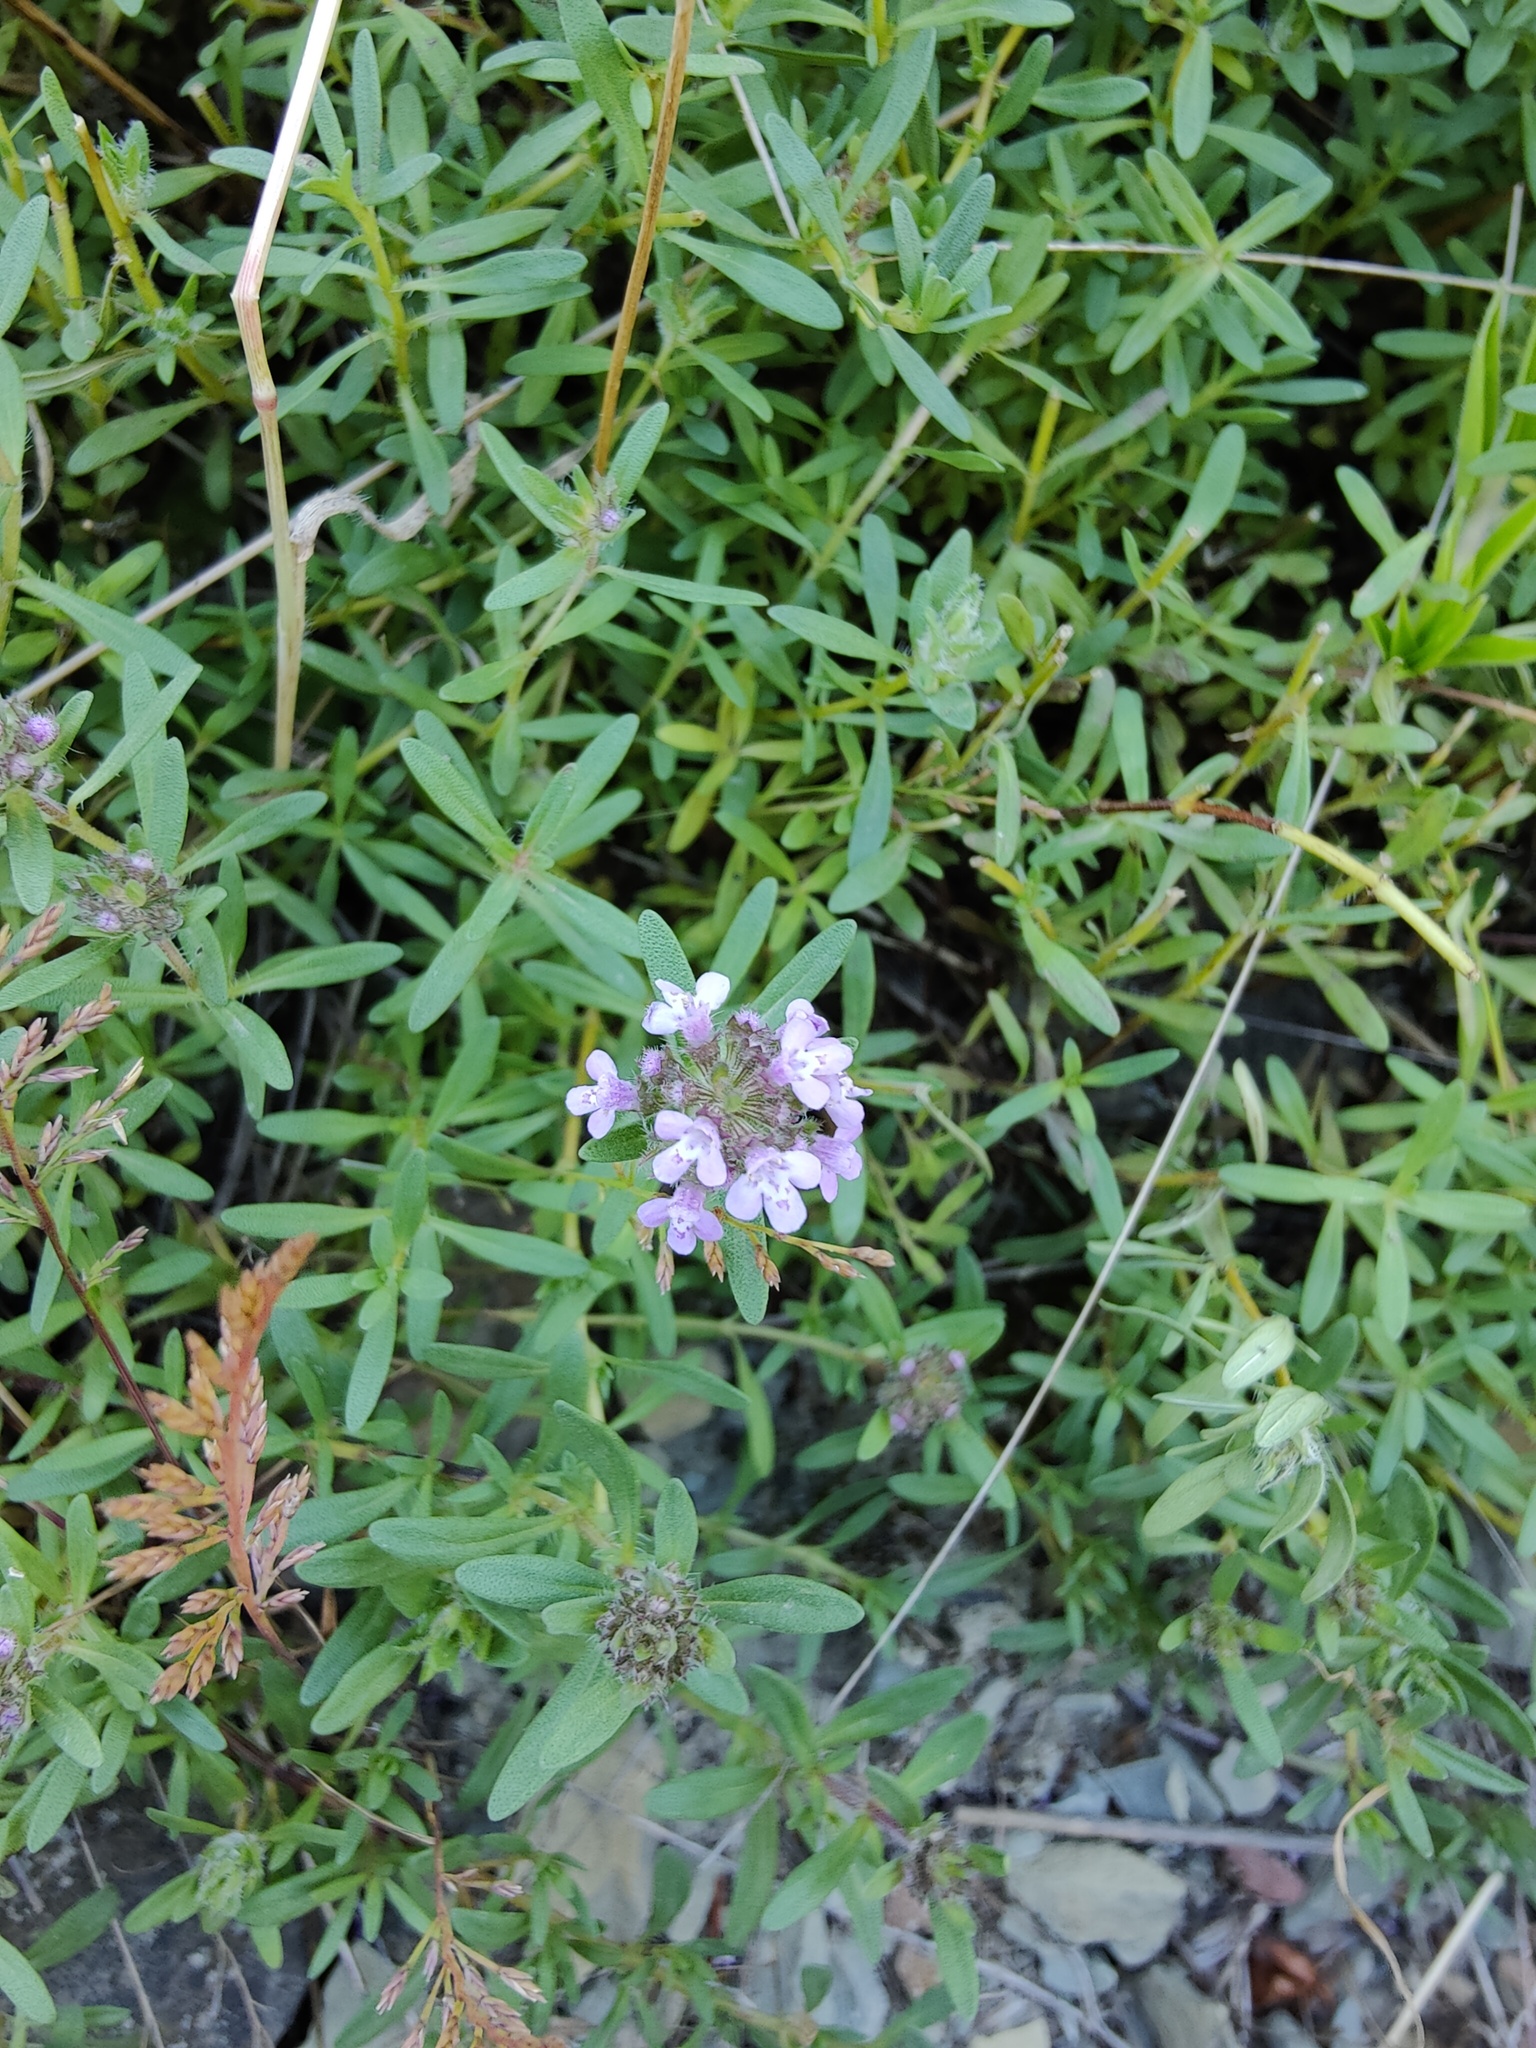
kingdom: Plantae
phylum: Tracheophyta
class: Magnoliopsida
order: Lamiales
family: Lamiaceae
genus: Thymus
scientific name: Thymus dimorphus
